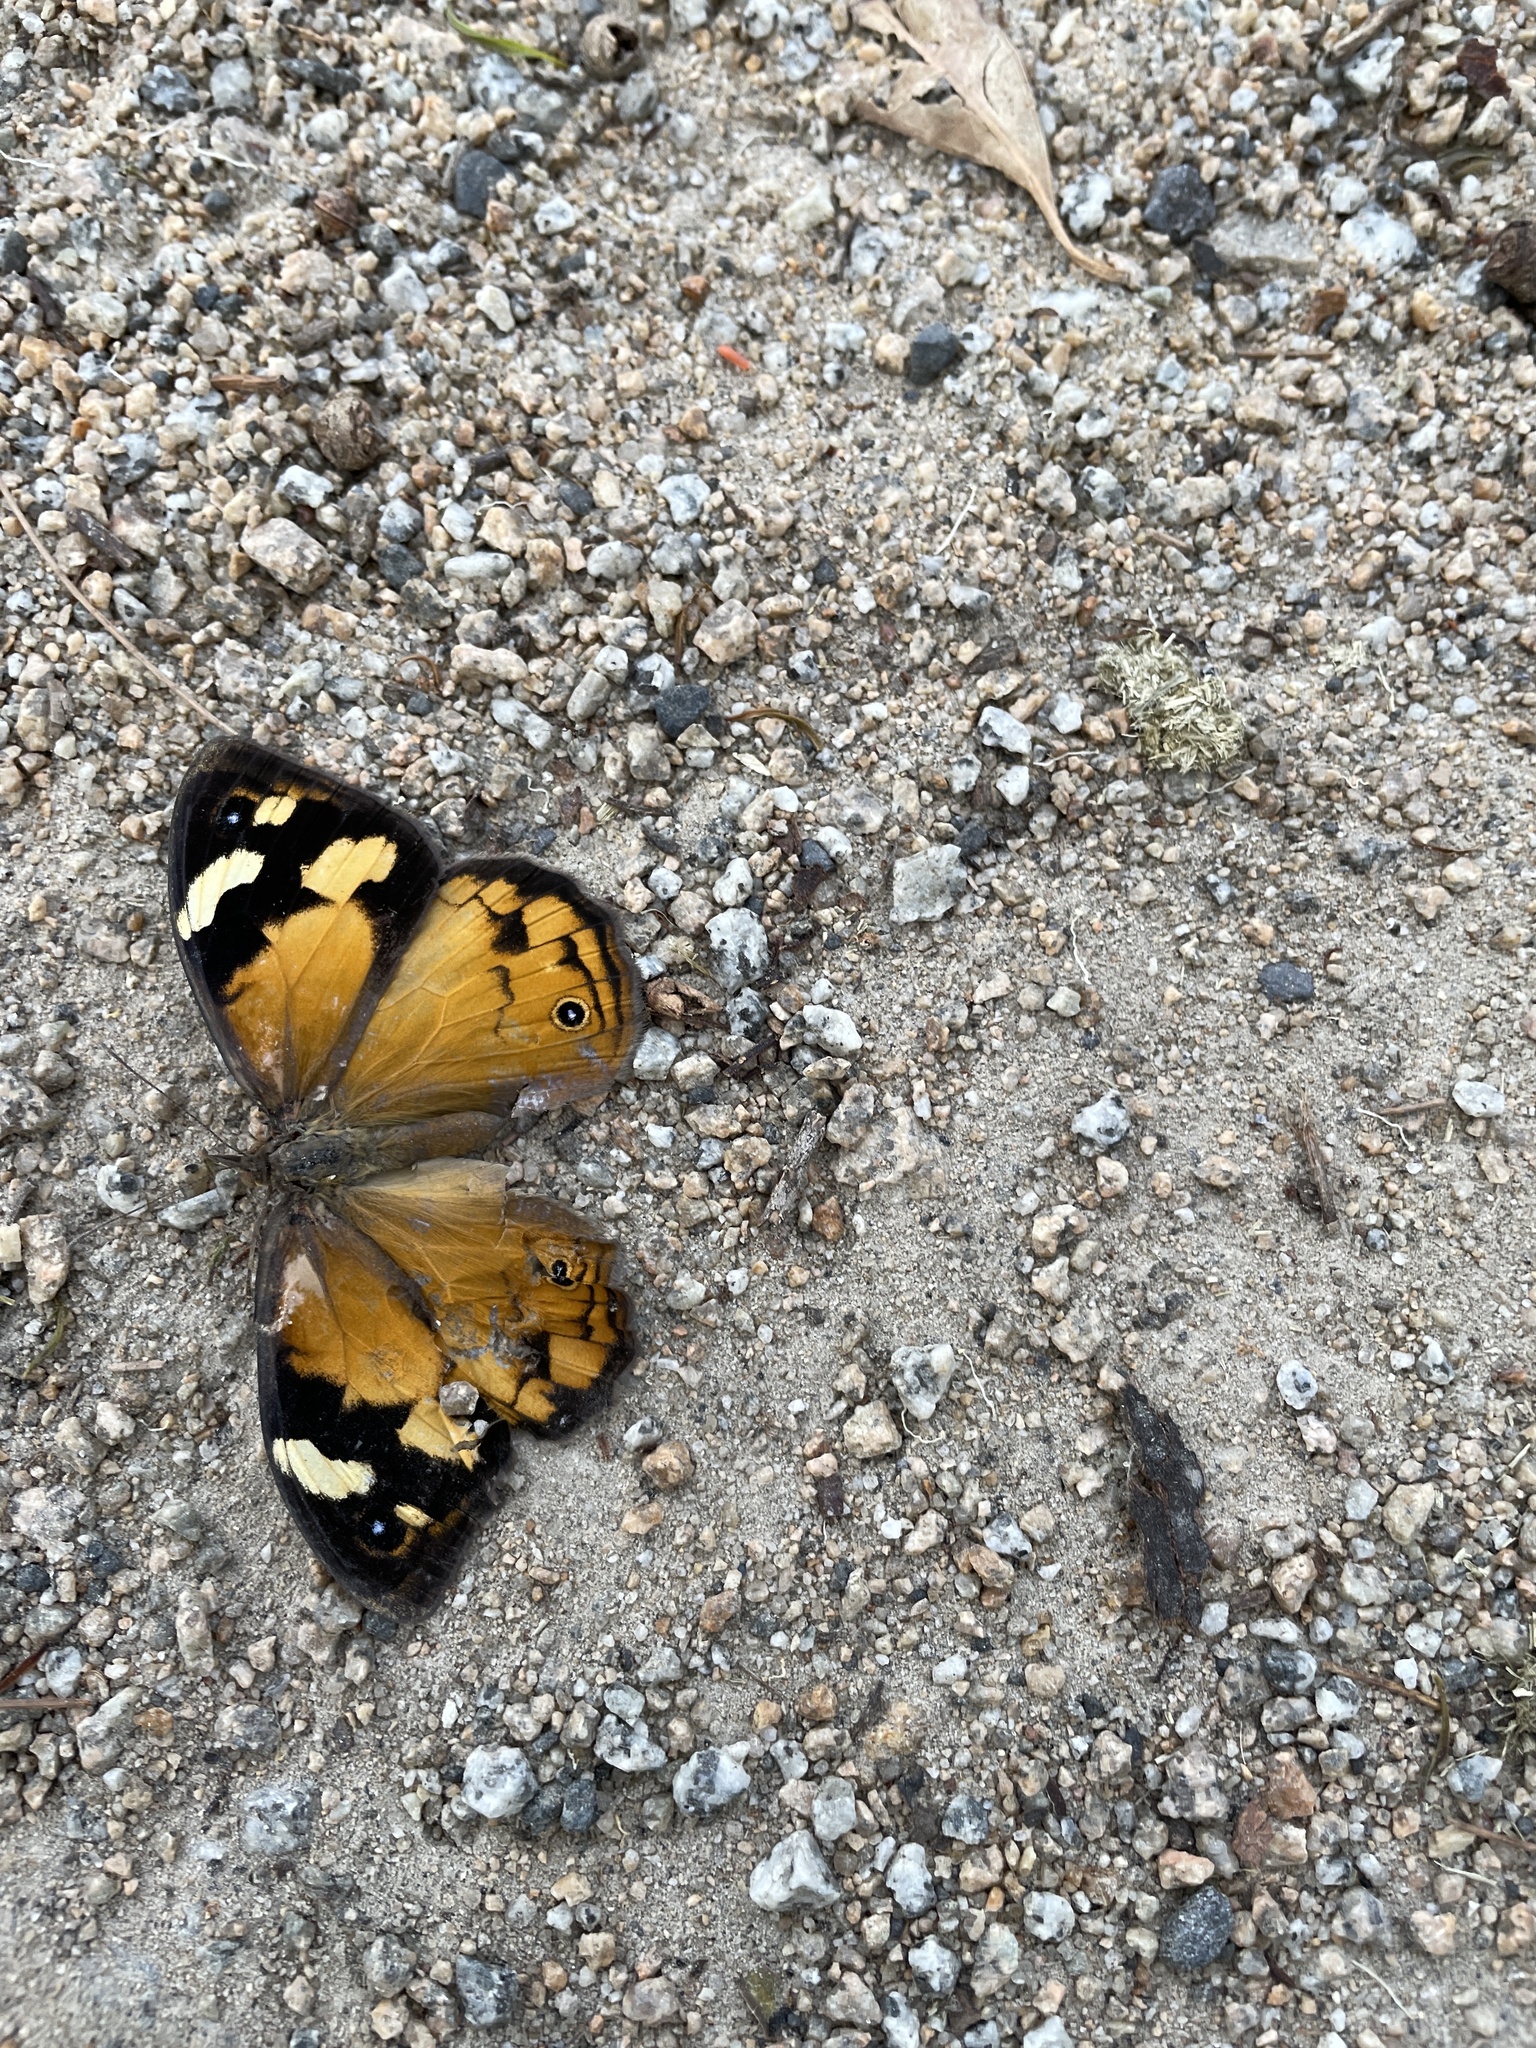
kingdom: Animalia
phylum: Arthropoda
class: Insecta
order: Lepidoptera
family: Nymphalidae
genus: Heteronympha
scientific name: Heteronympha merope
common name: Common brown
